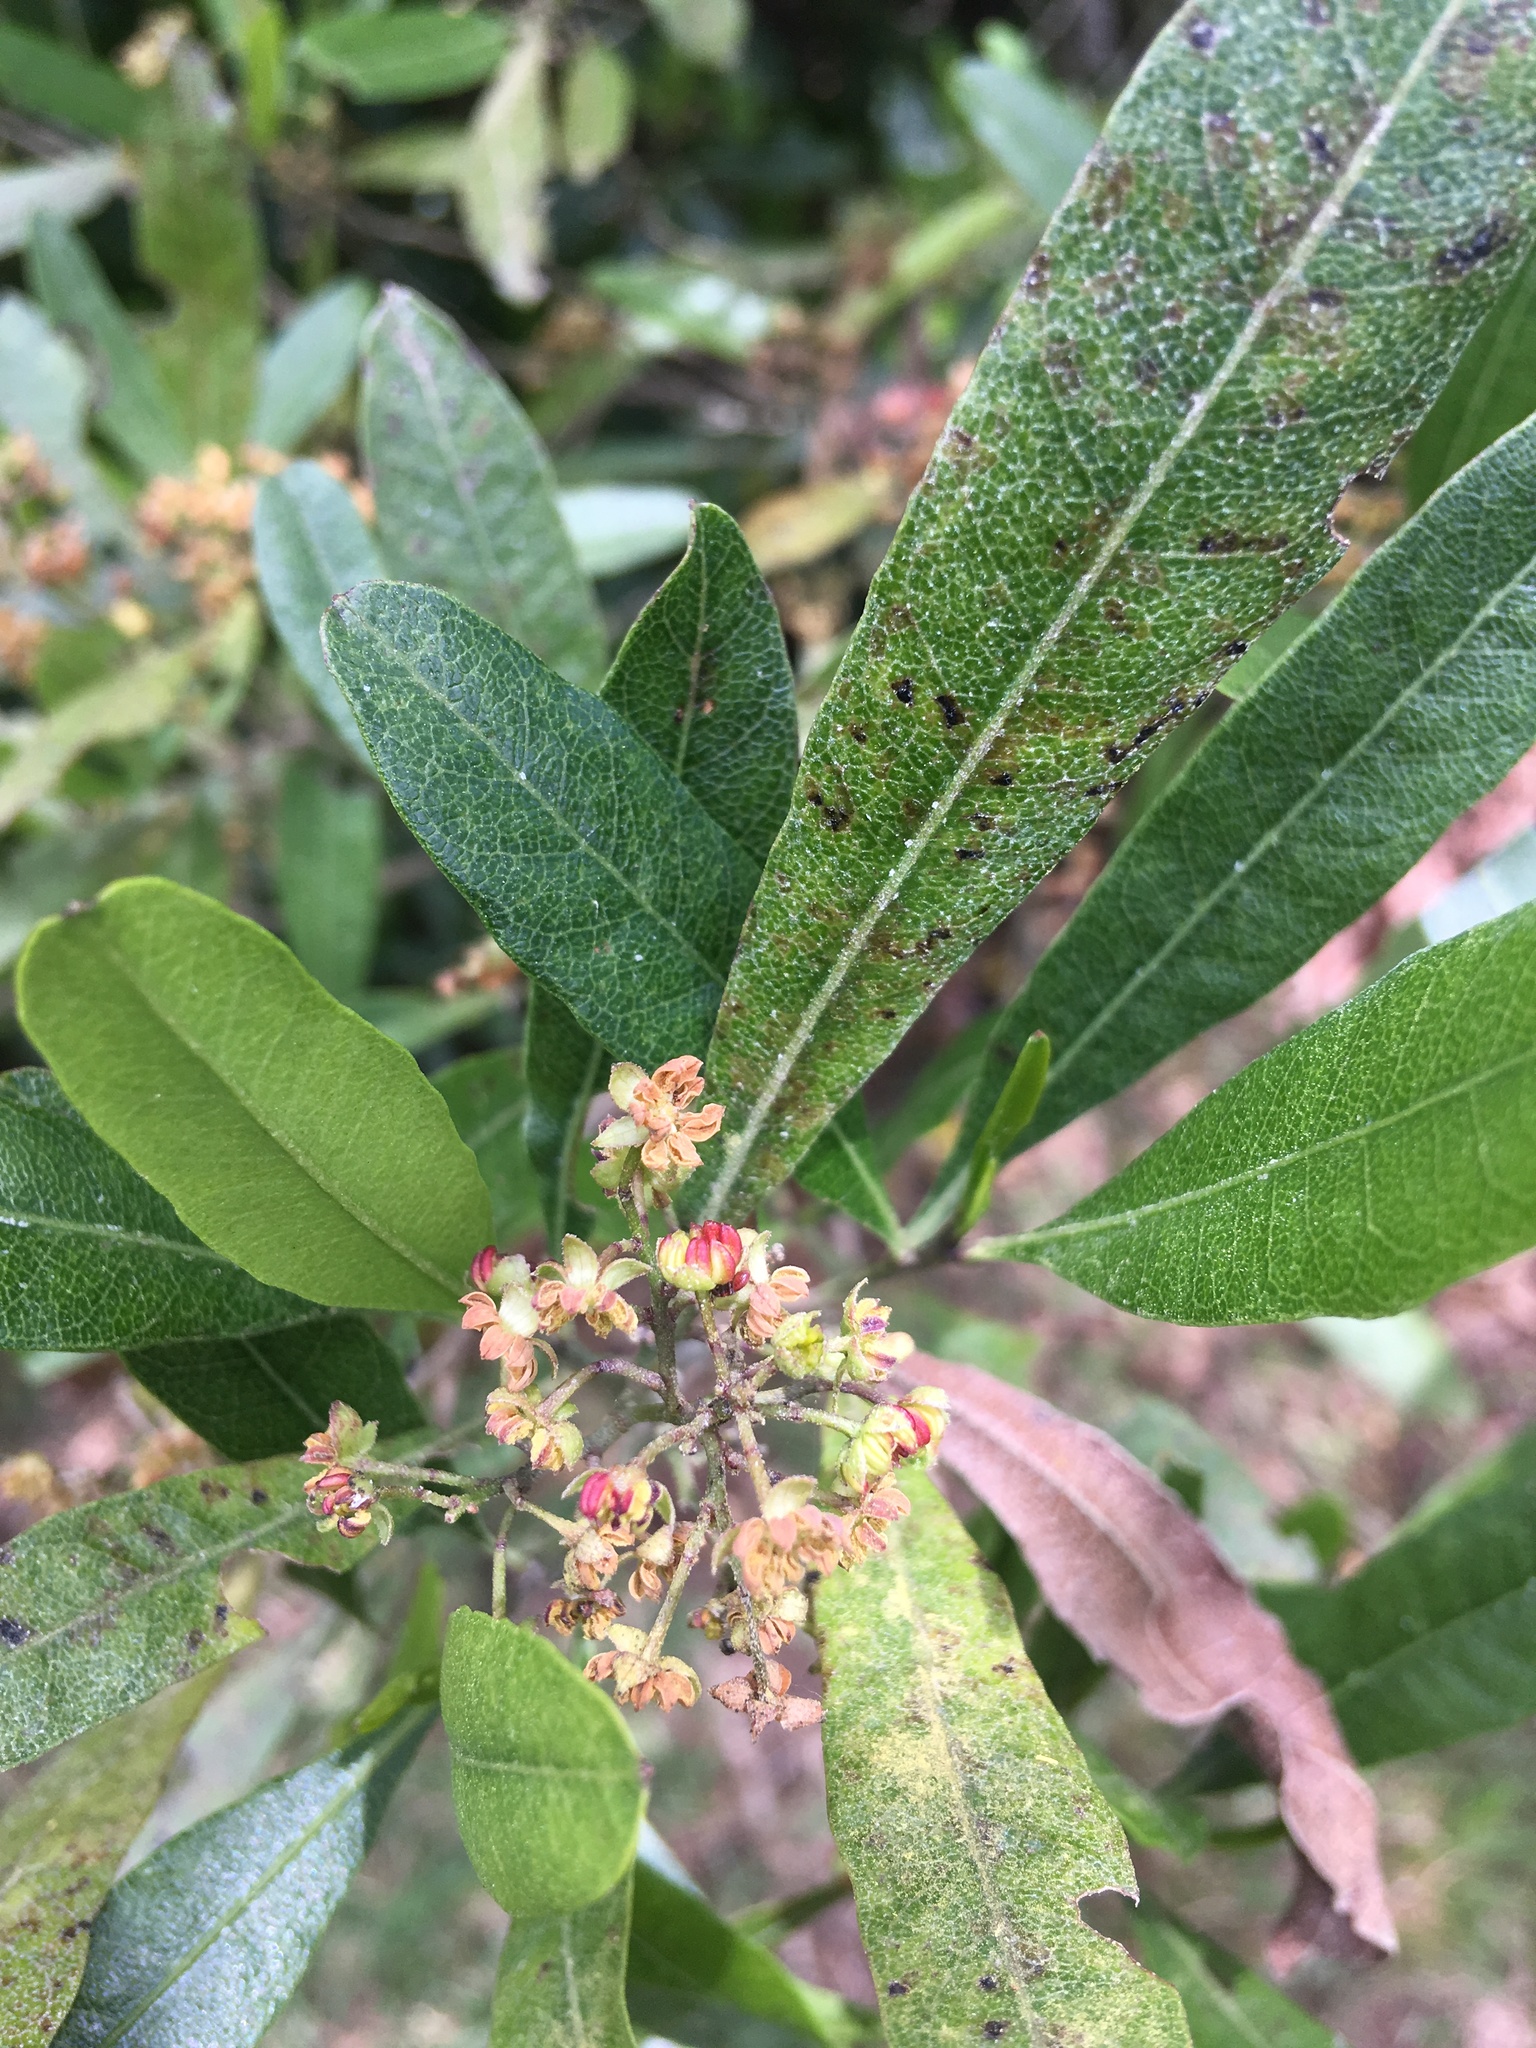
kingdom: Plantae
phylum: Tracheophyta
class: Magnoliopsida
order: Sapindales
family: Sapindaceae
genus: Dodonaea
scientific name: Dodonaea viscosa
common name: Hopbush
